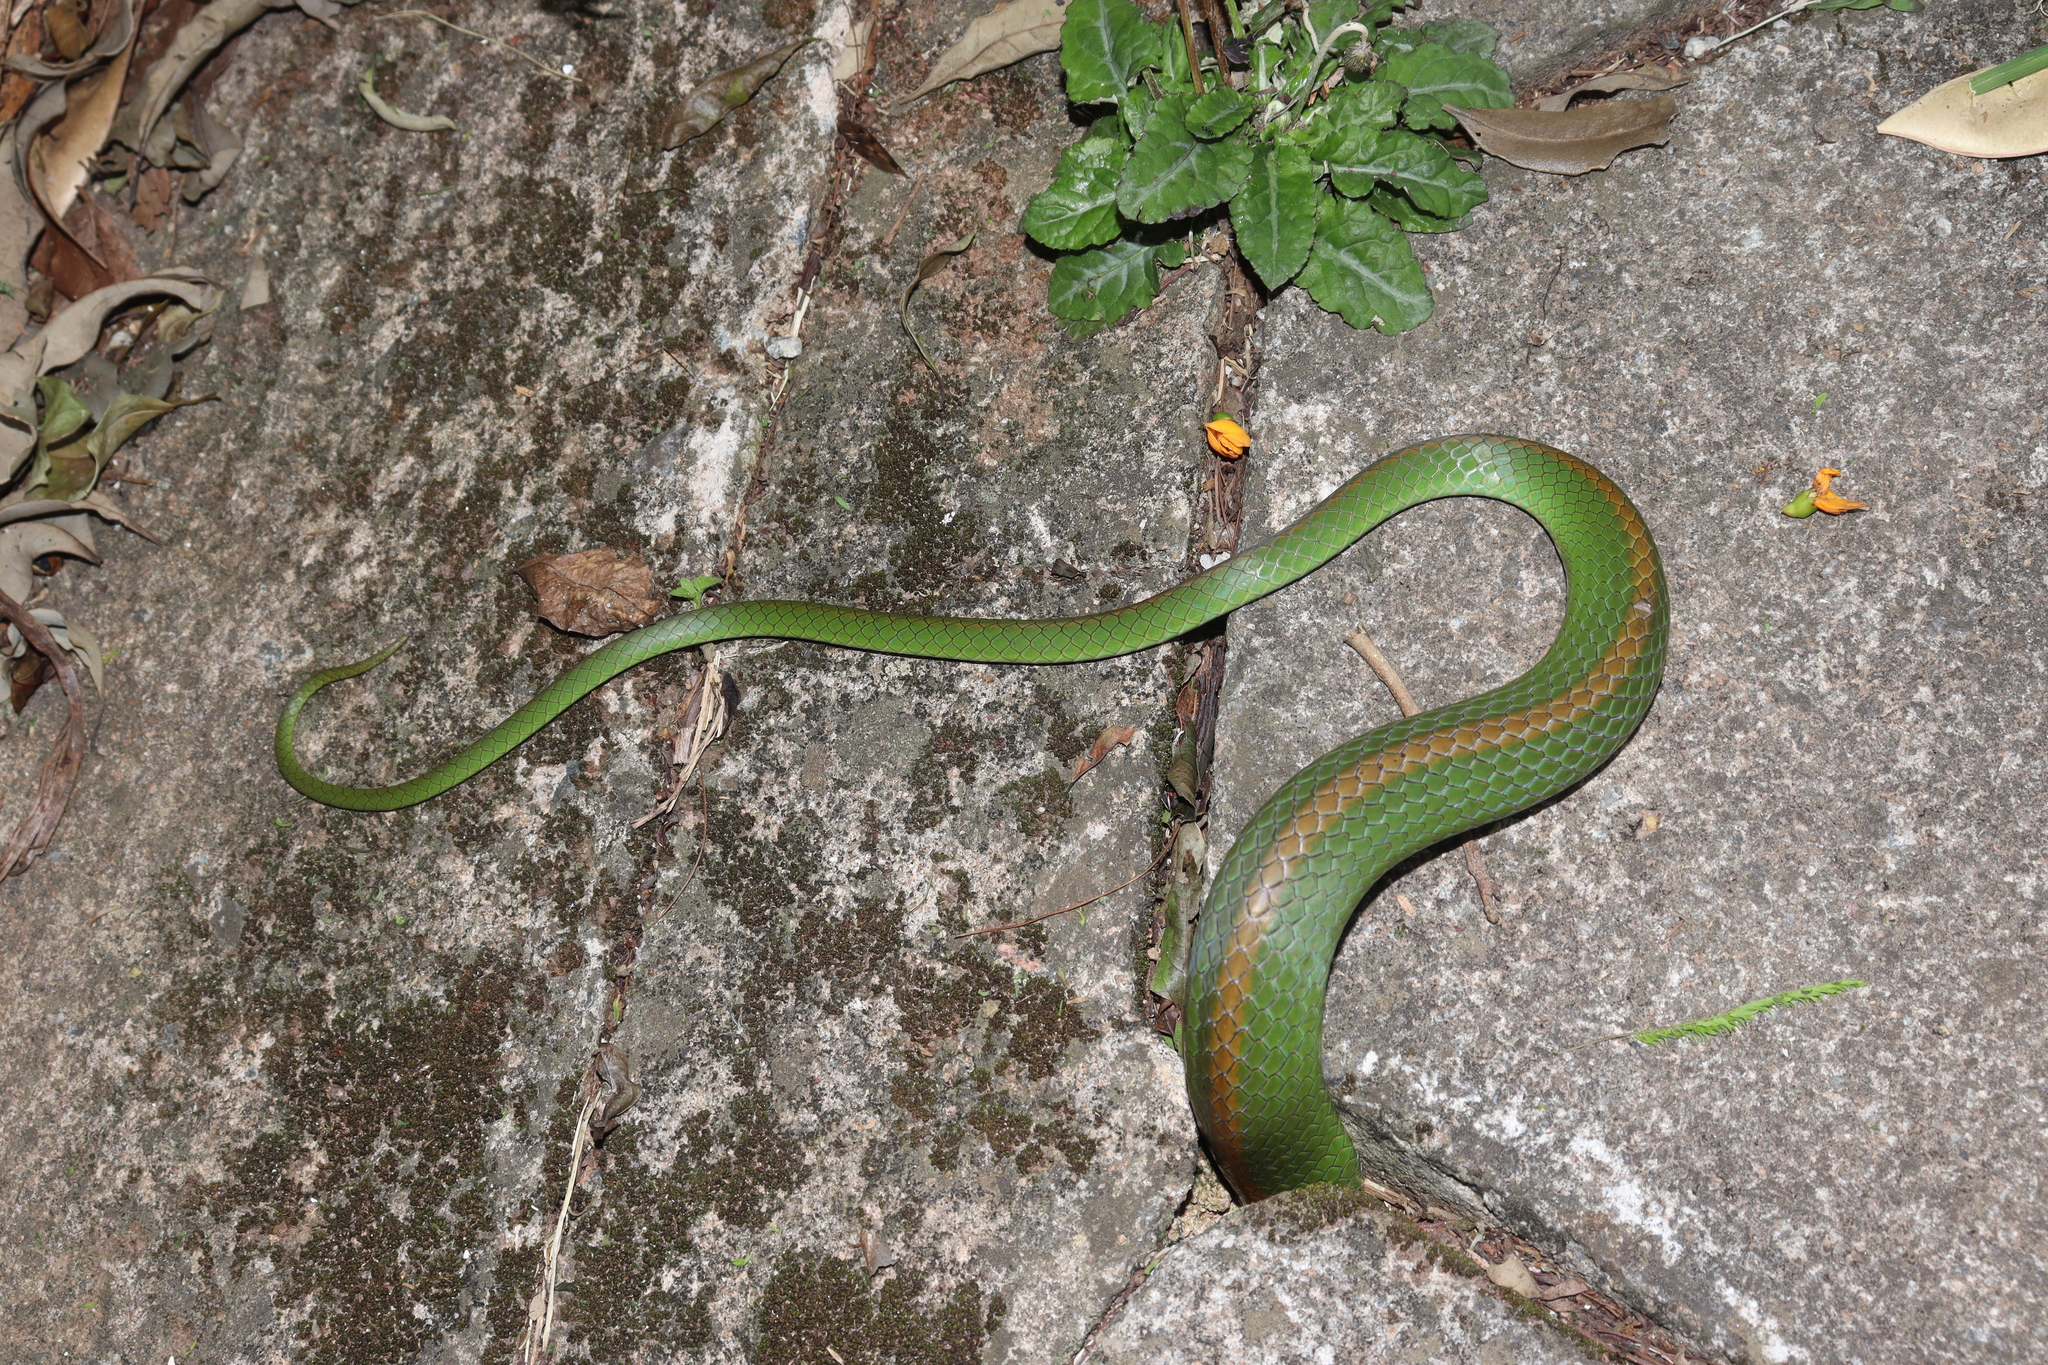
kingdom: Animalia
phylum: Chordata
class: Squamata
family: Colubridae
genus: Philodryas
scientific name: Philodryas olfersii
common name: Lichtenstein's green racer
